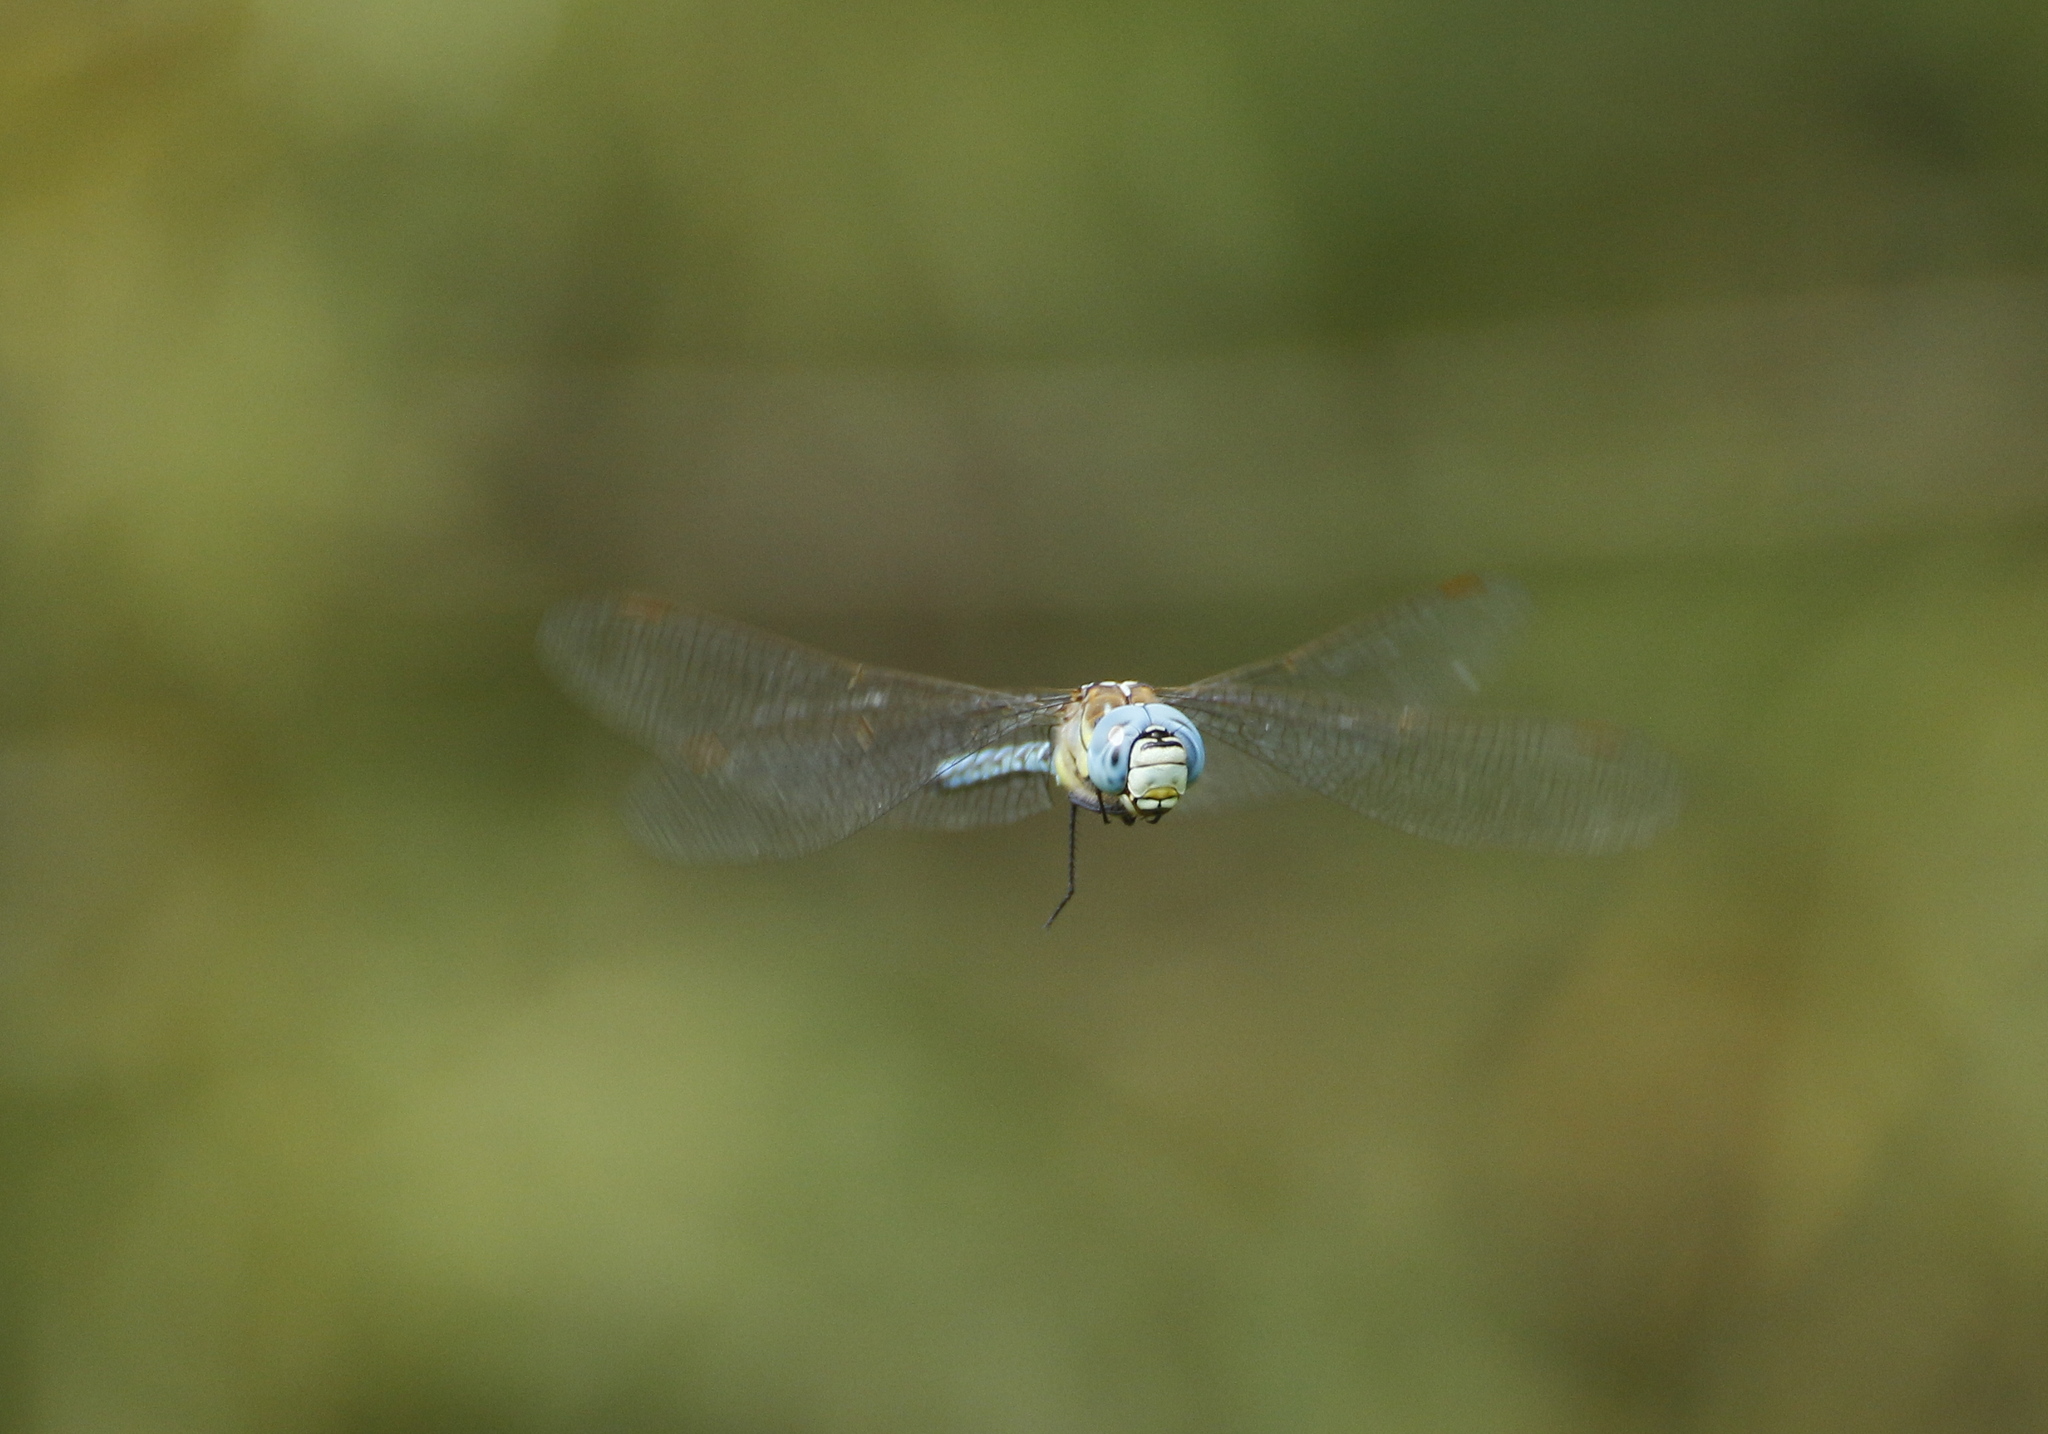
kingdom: Animalia
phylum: Arthropoda
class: Insecta
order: Odonata
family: Aeshnidae
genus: Aeshna
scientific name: Aeshna affinis
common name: Southern migrant hawker
